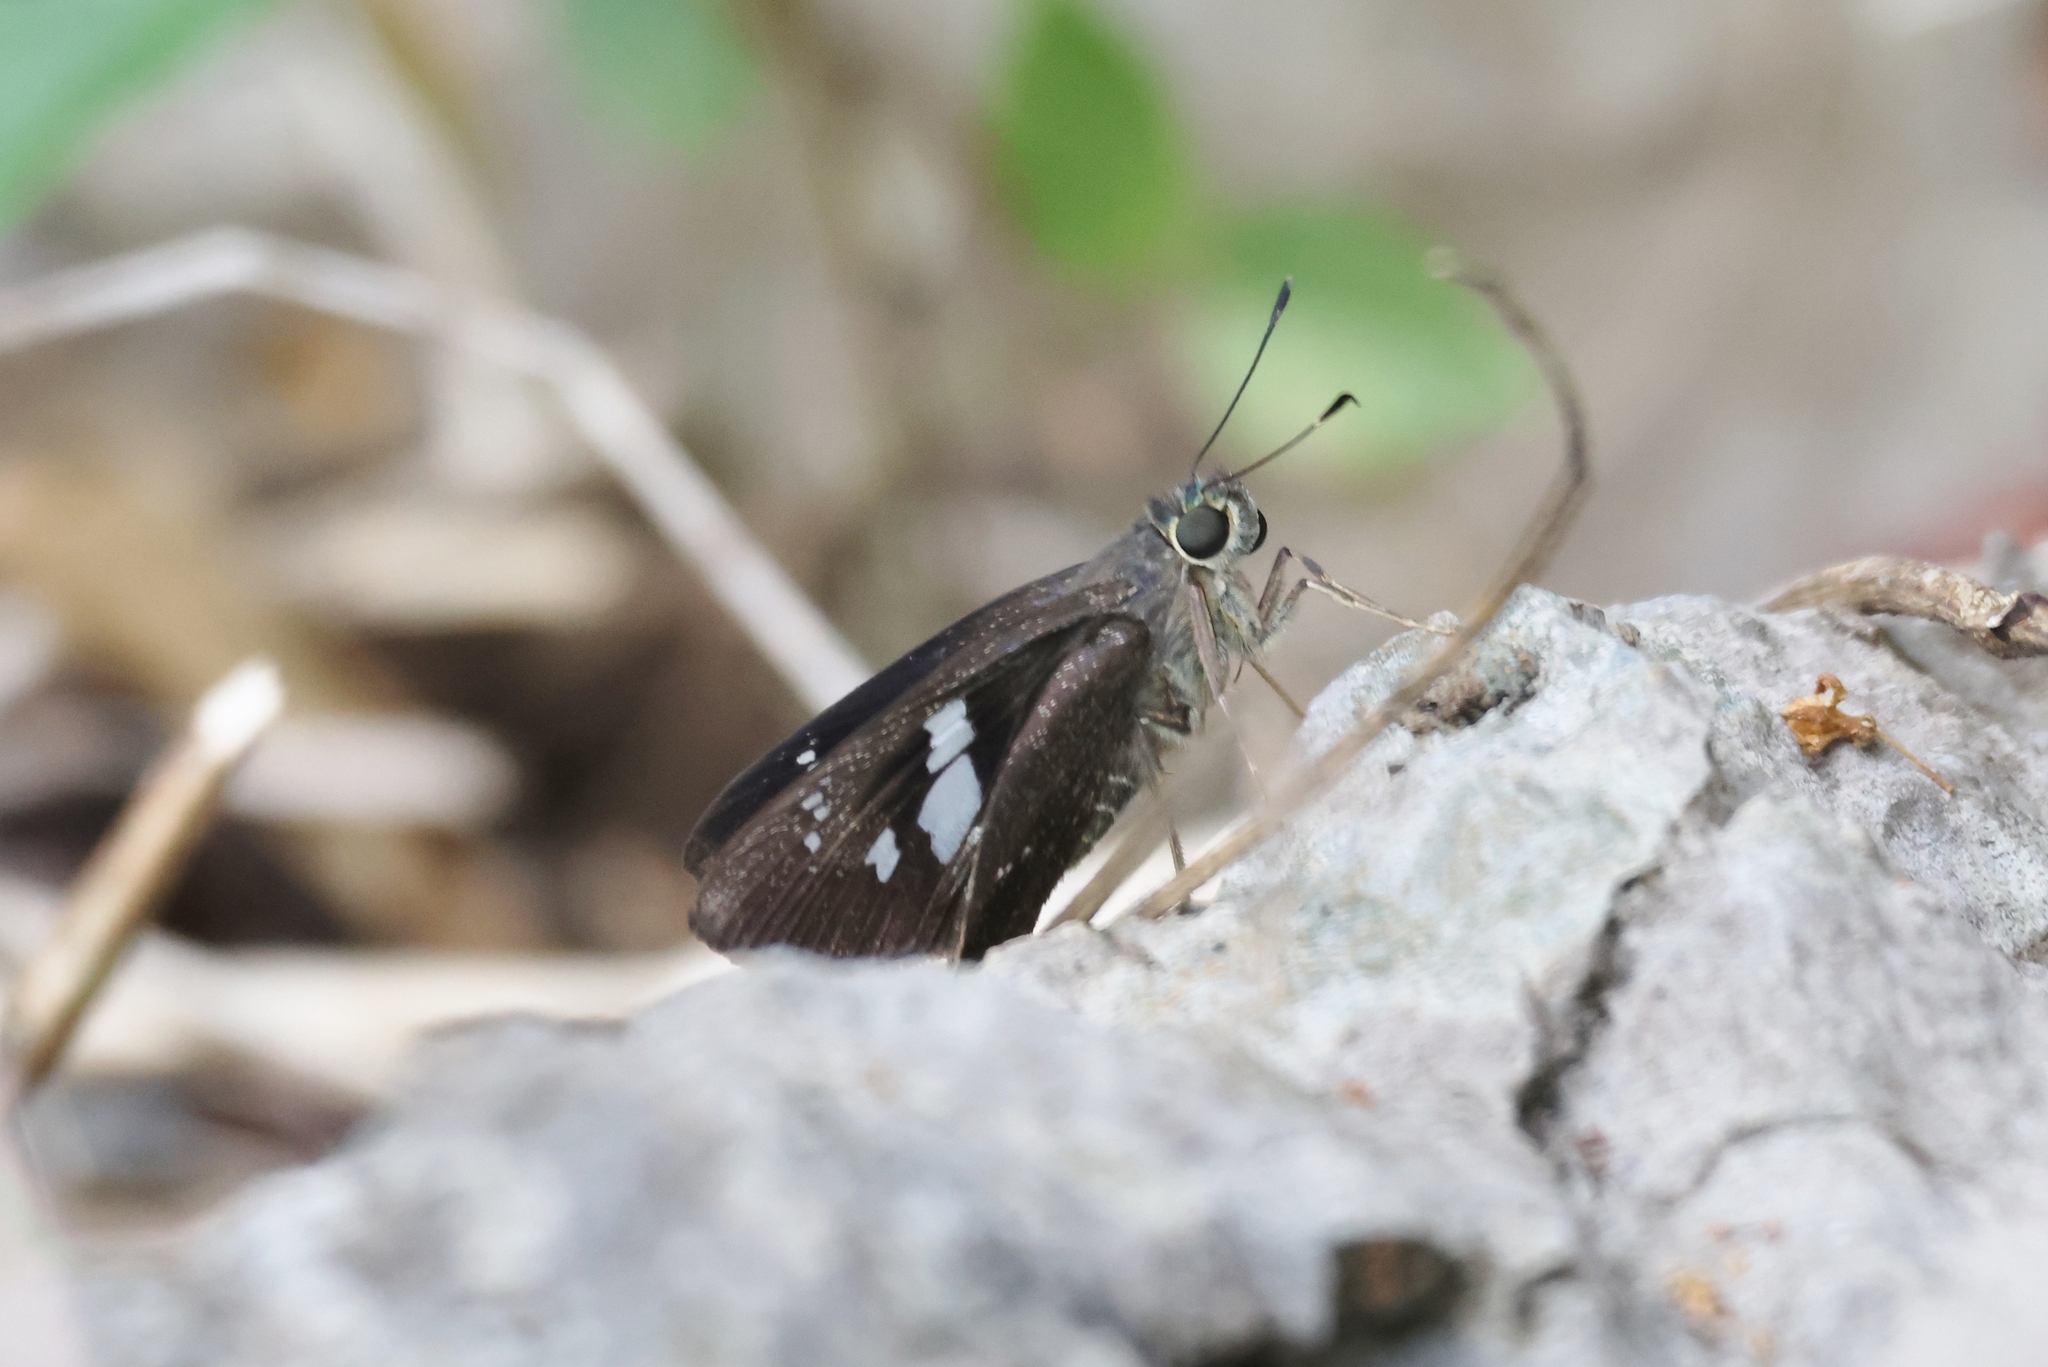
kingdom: Animalia
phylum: Arthropoda
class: Insecta
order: Lepidoptera
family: Hesperiidae
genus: Rhinthon
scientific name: Rhinthon cubana
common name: Cuban skipper
